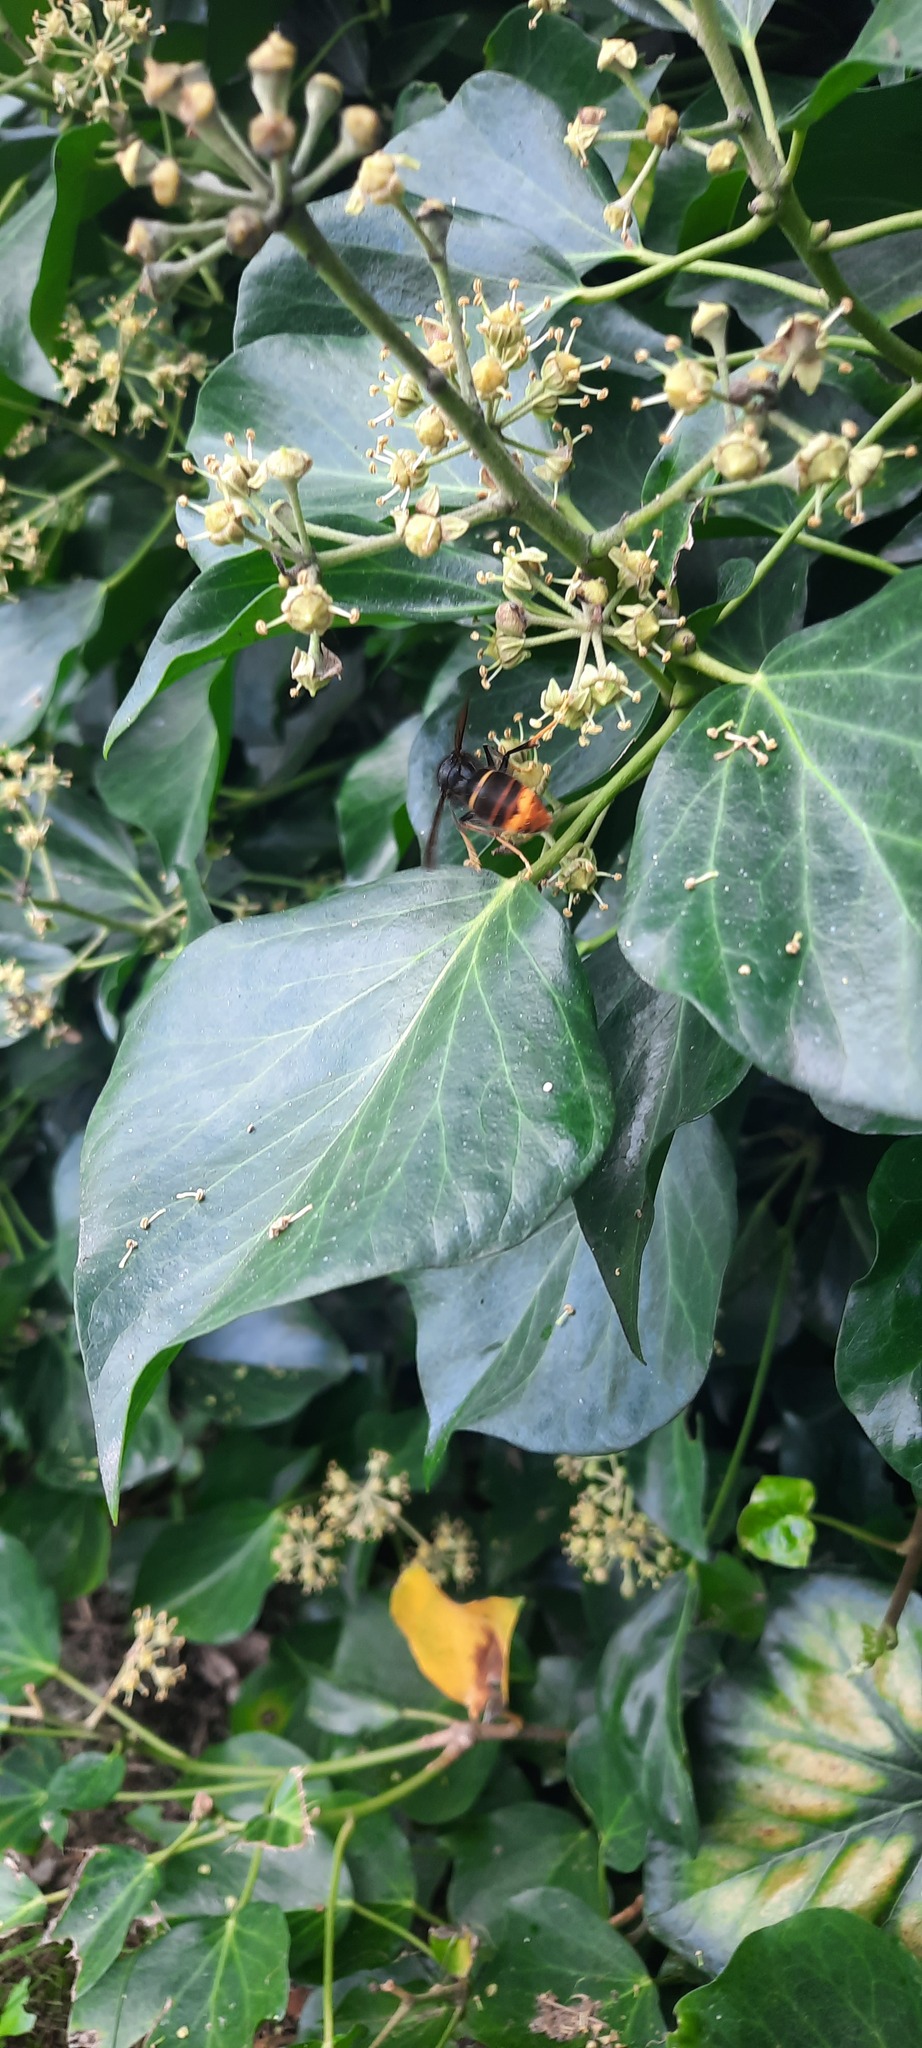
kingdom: Animalia
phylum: Arthropoda
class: Insecta
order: Hymenoptera
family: Vespidae
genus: Vespa
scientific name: Vespa velutina
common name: Asian hornet
